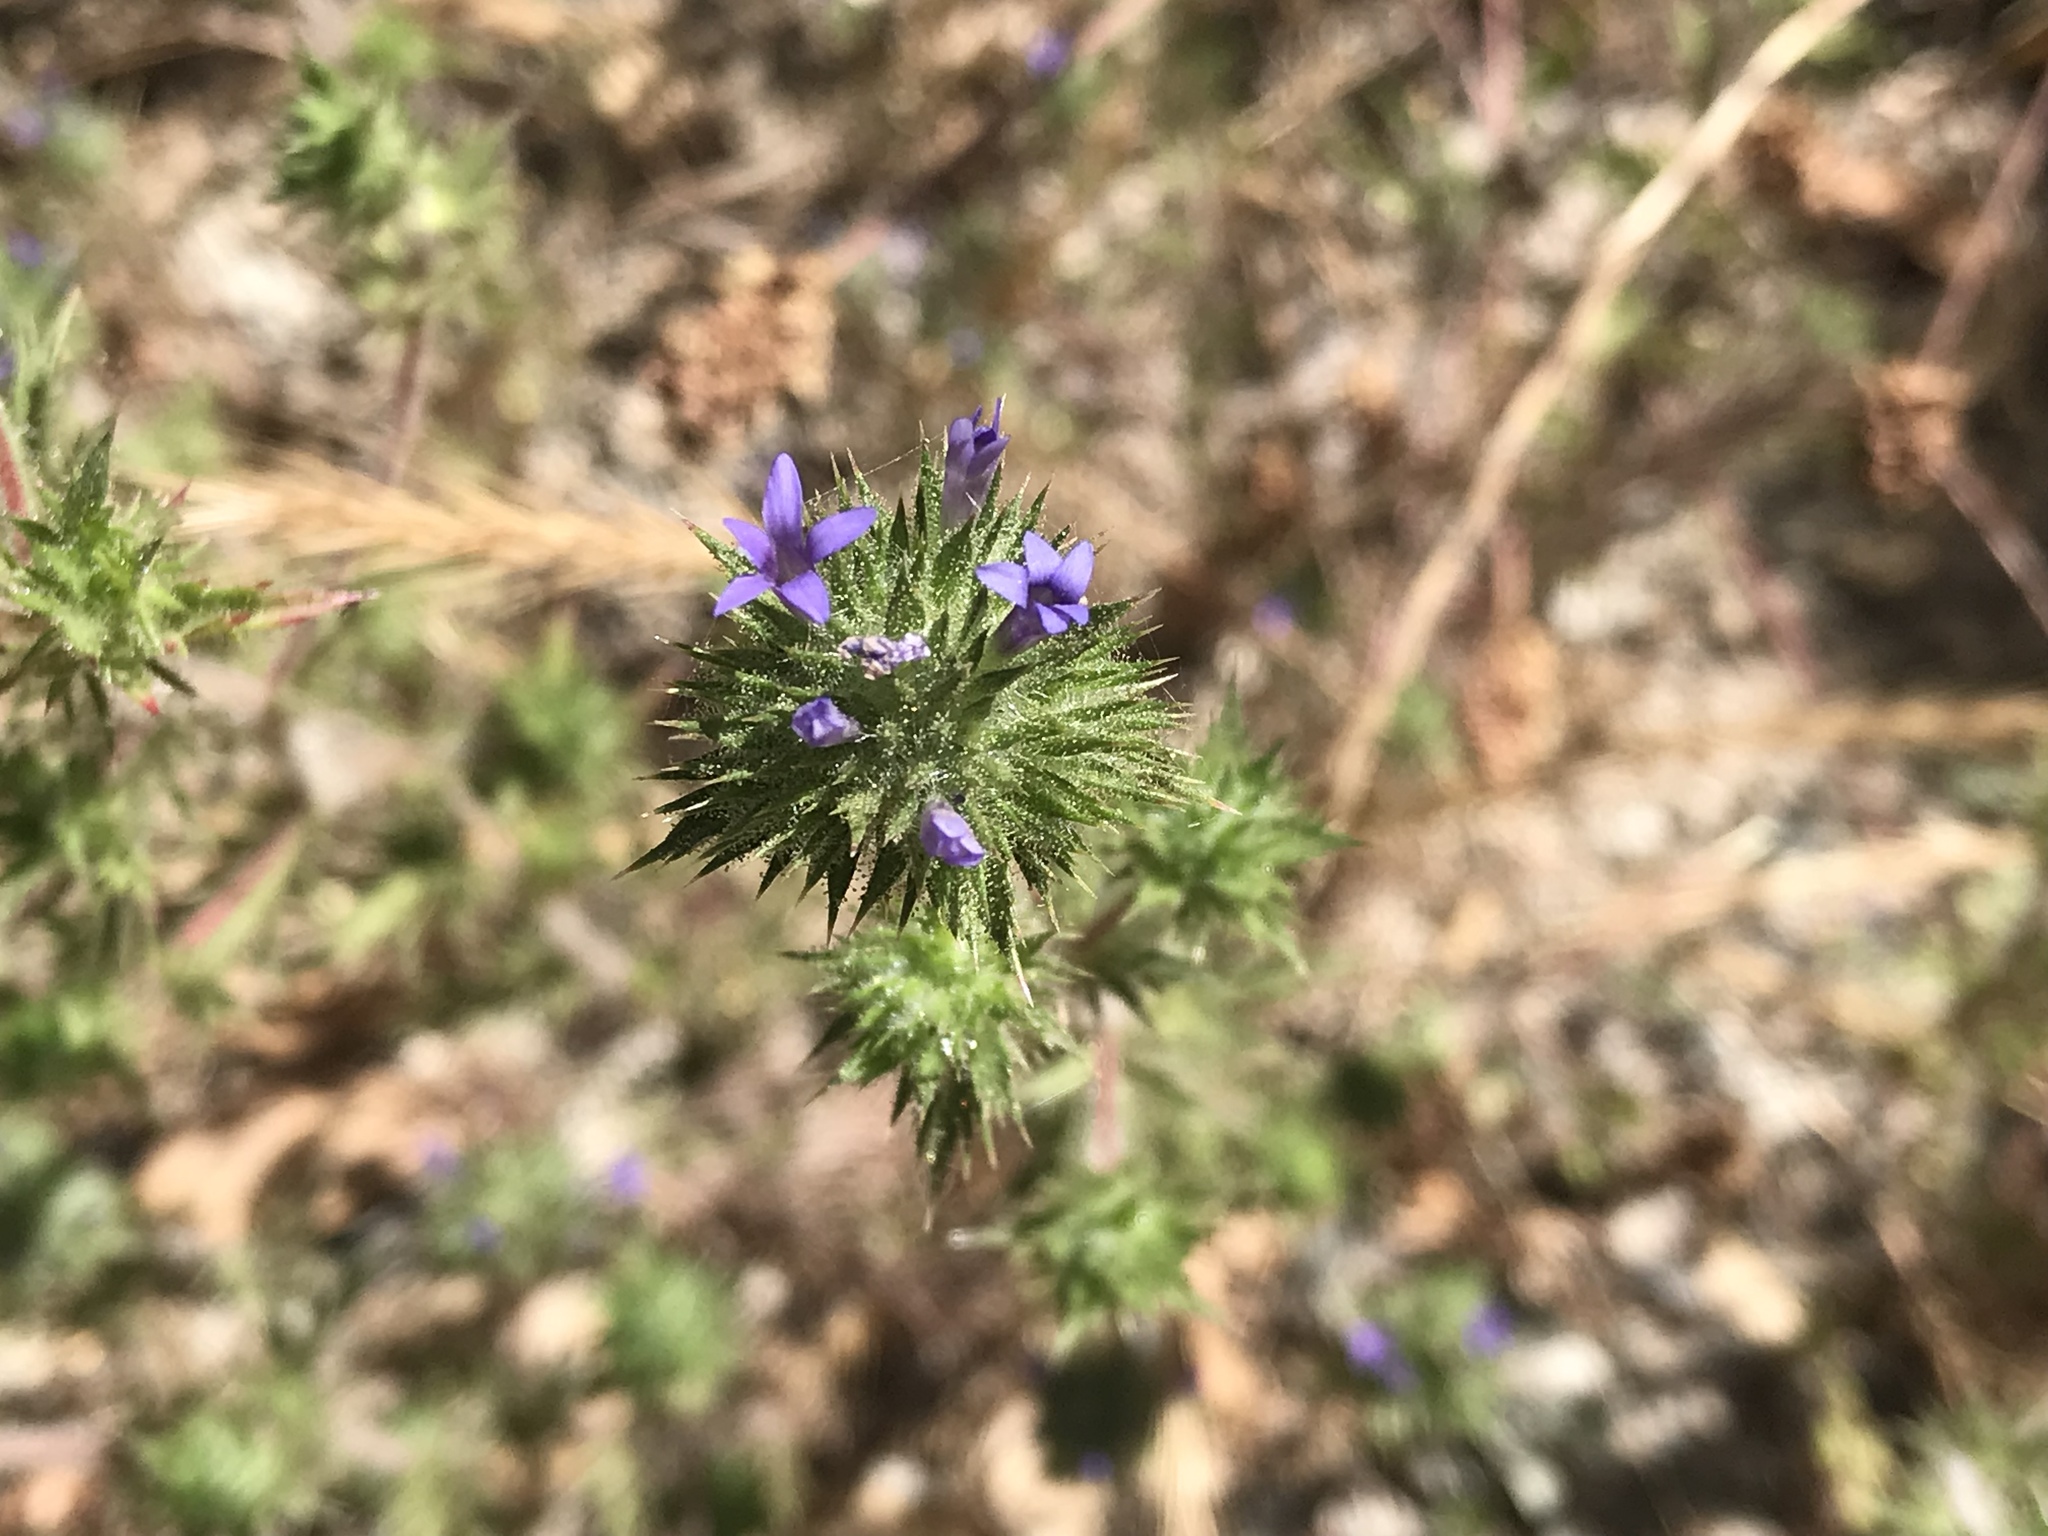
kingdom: Plantae
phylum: Tracheophyta
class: Magnoliopsida
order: Ericales
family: Polemoniaceae
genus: Navarretia
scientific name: Navarretia squarrosa
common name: Skunkweed
